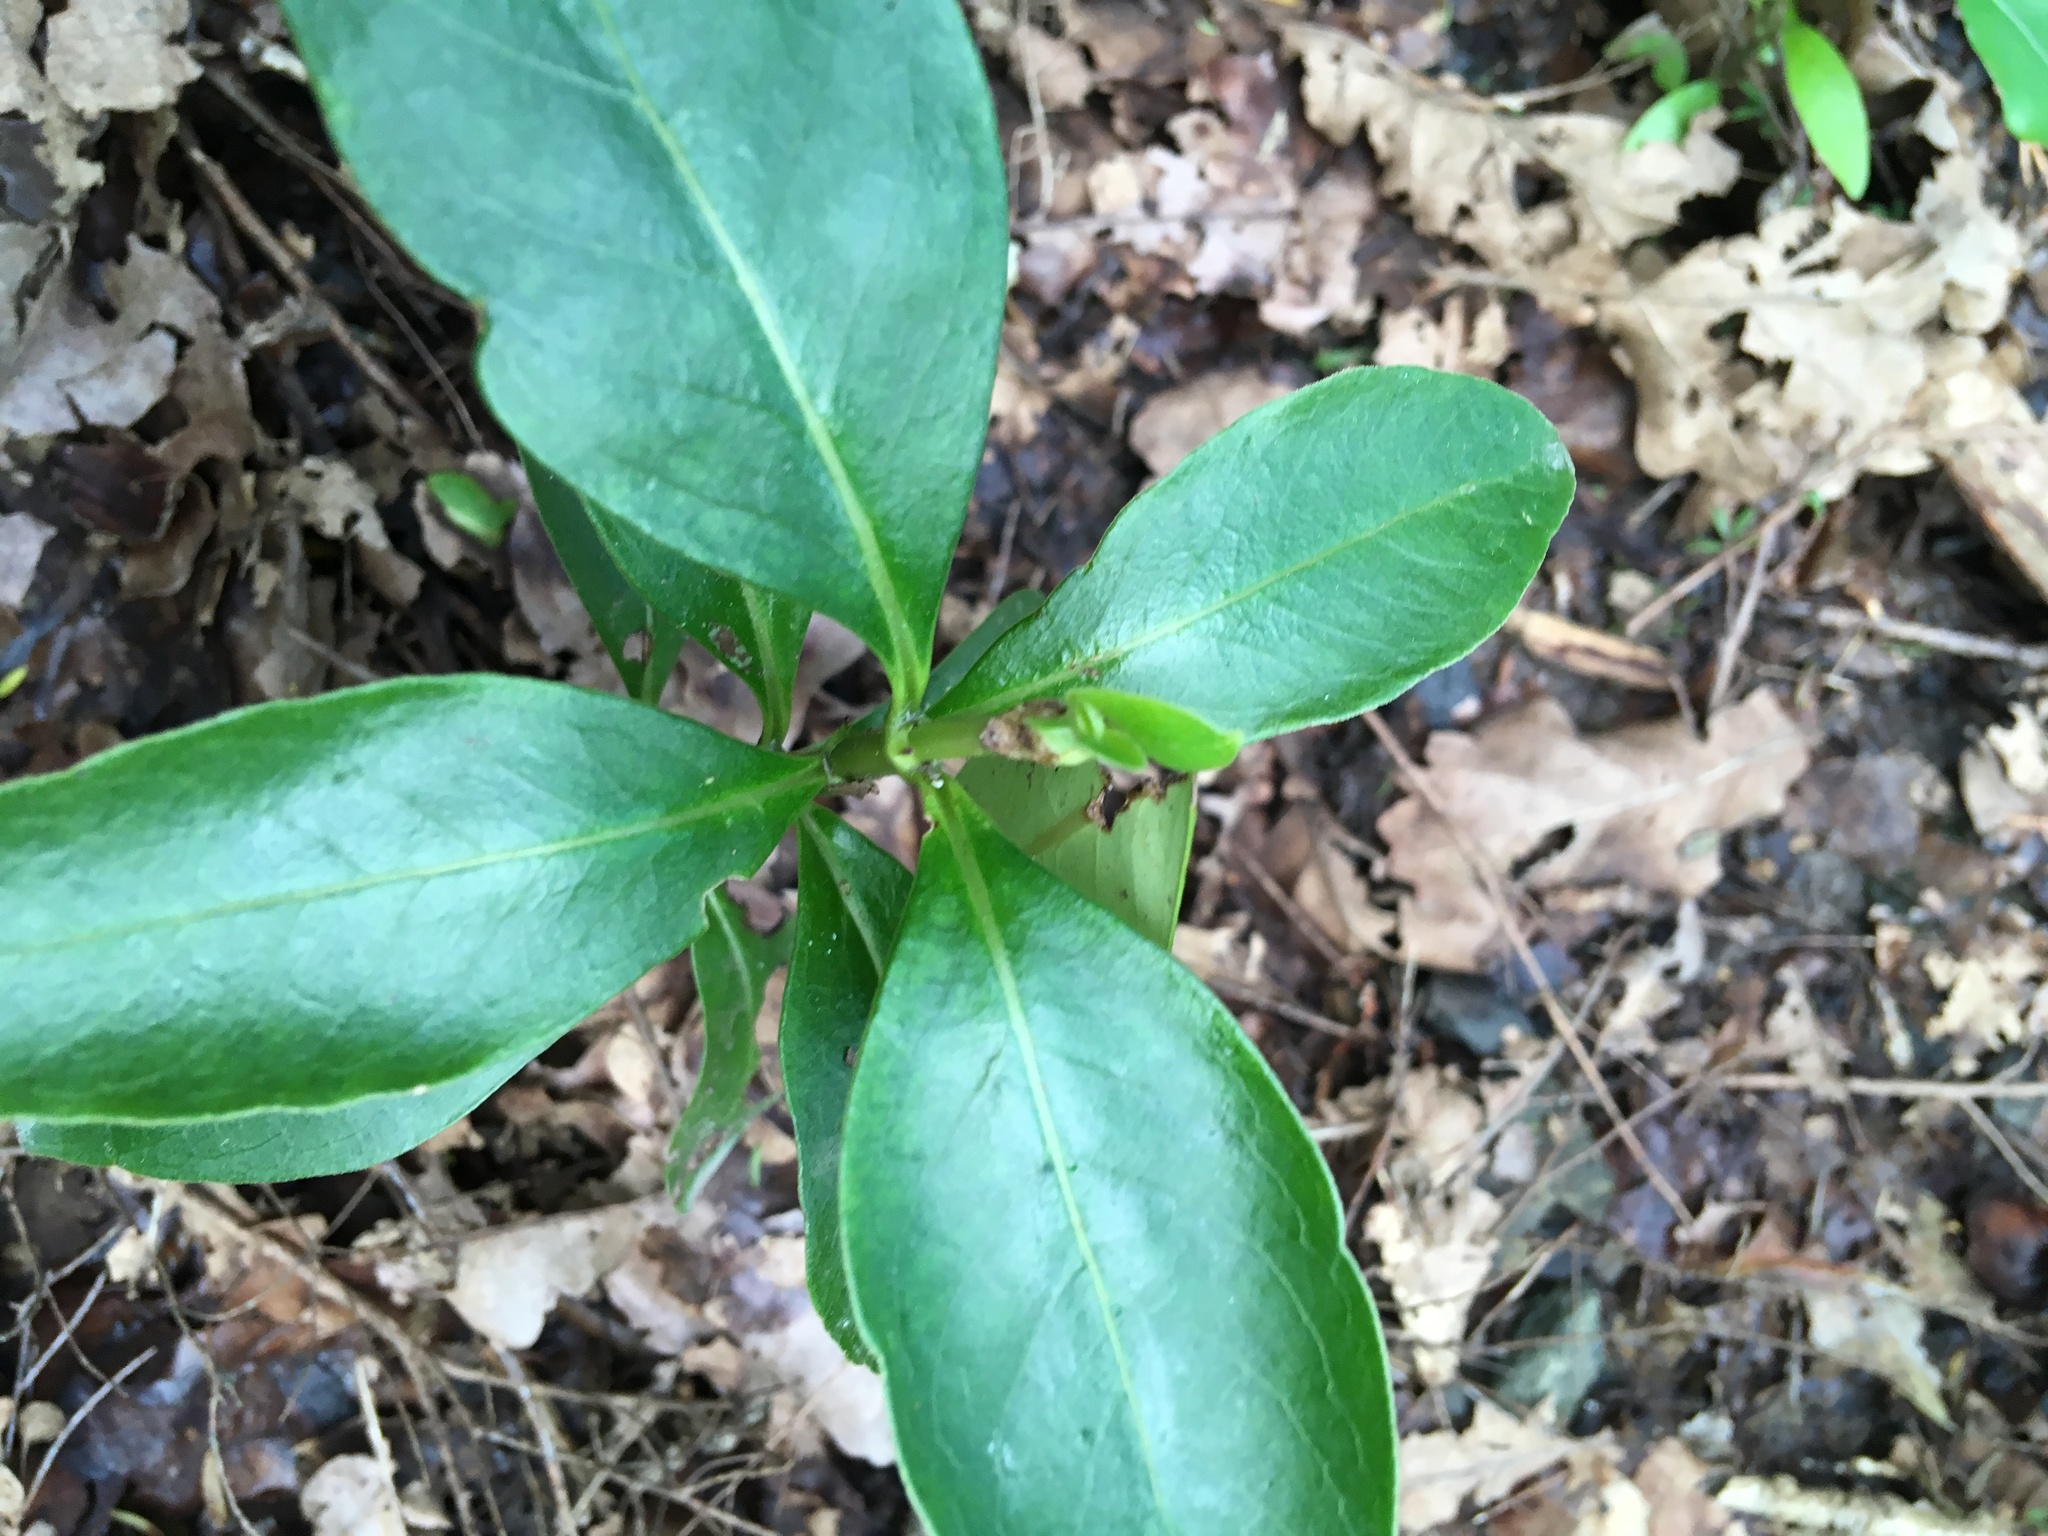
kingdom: Plantae
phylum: Tracheophyta
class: Magnoliopsida
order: Gentianales
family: Rubiaceae
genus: Coprosma
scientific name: Coprosma robusta
